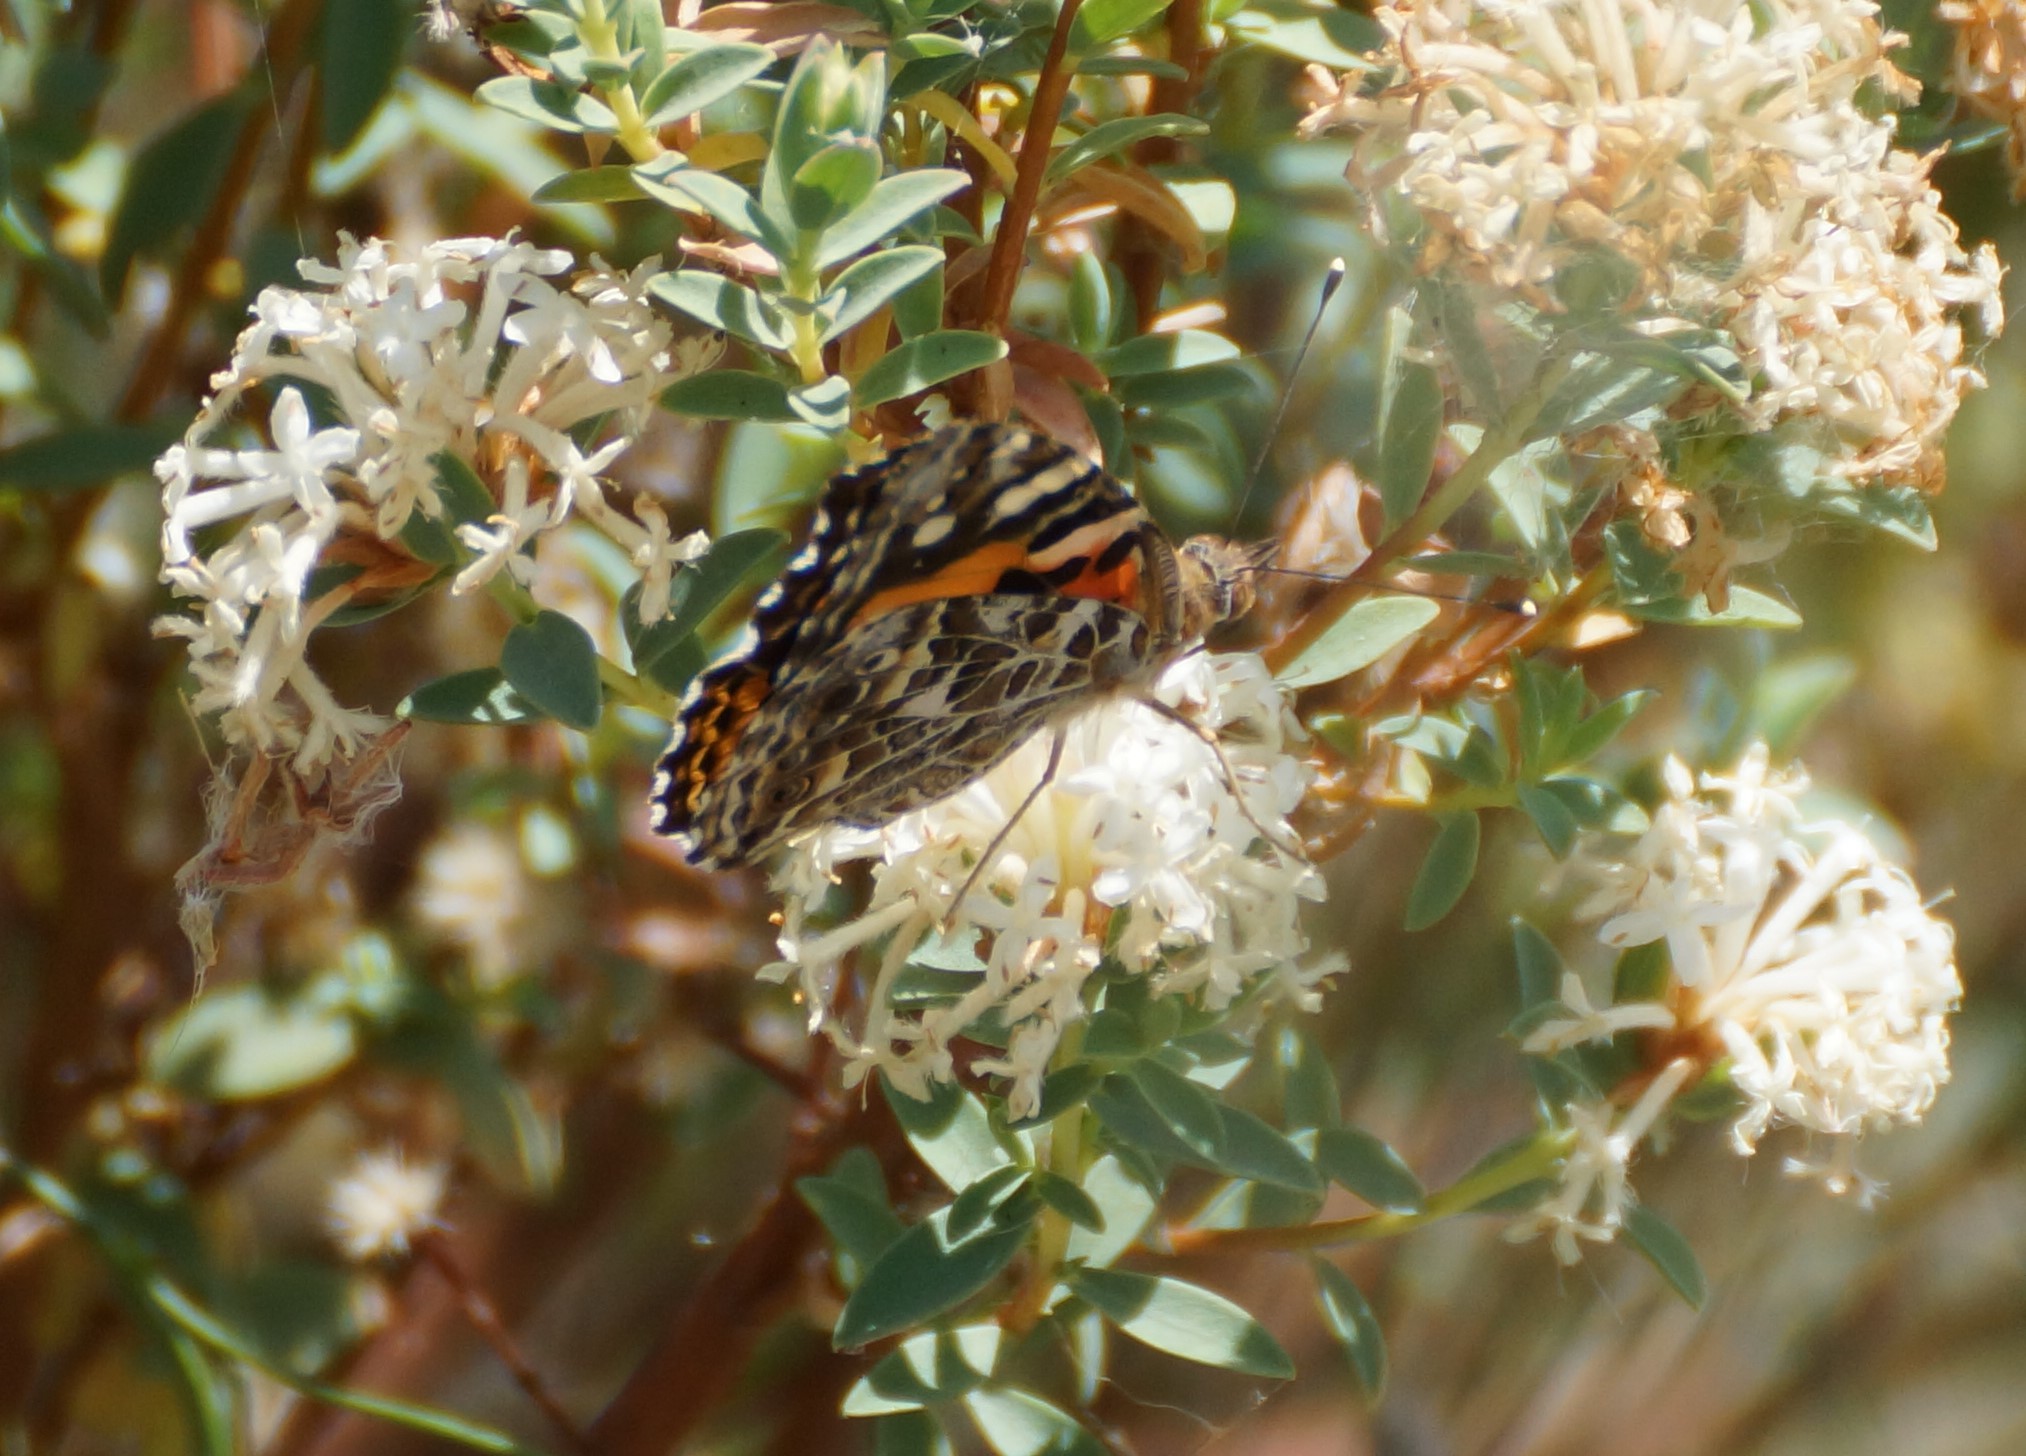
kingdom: Animalia
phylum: Arthropoda
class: Insecta
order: Lepidoptera
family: Nymphalidae
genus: Vanessa
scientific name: Vanessa kershawi
